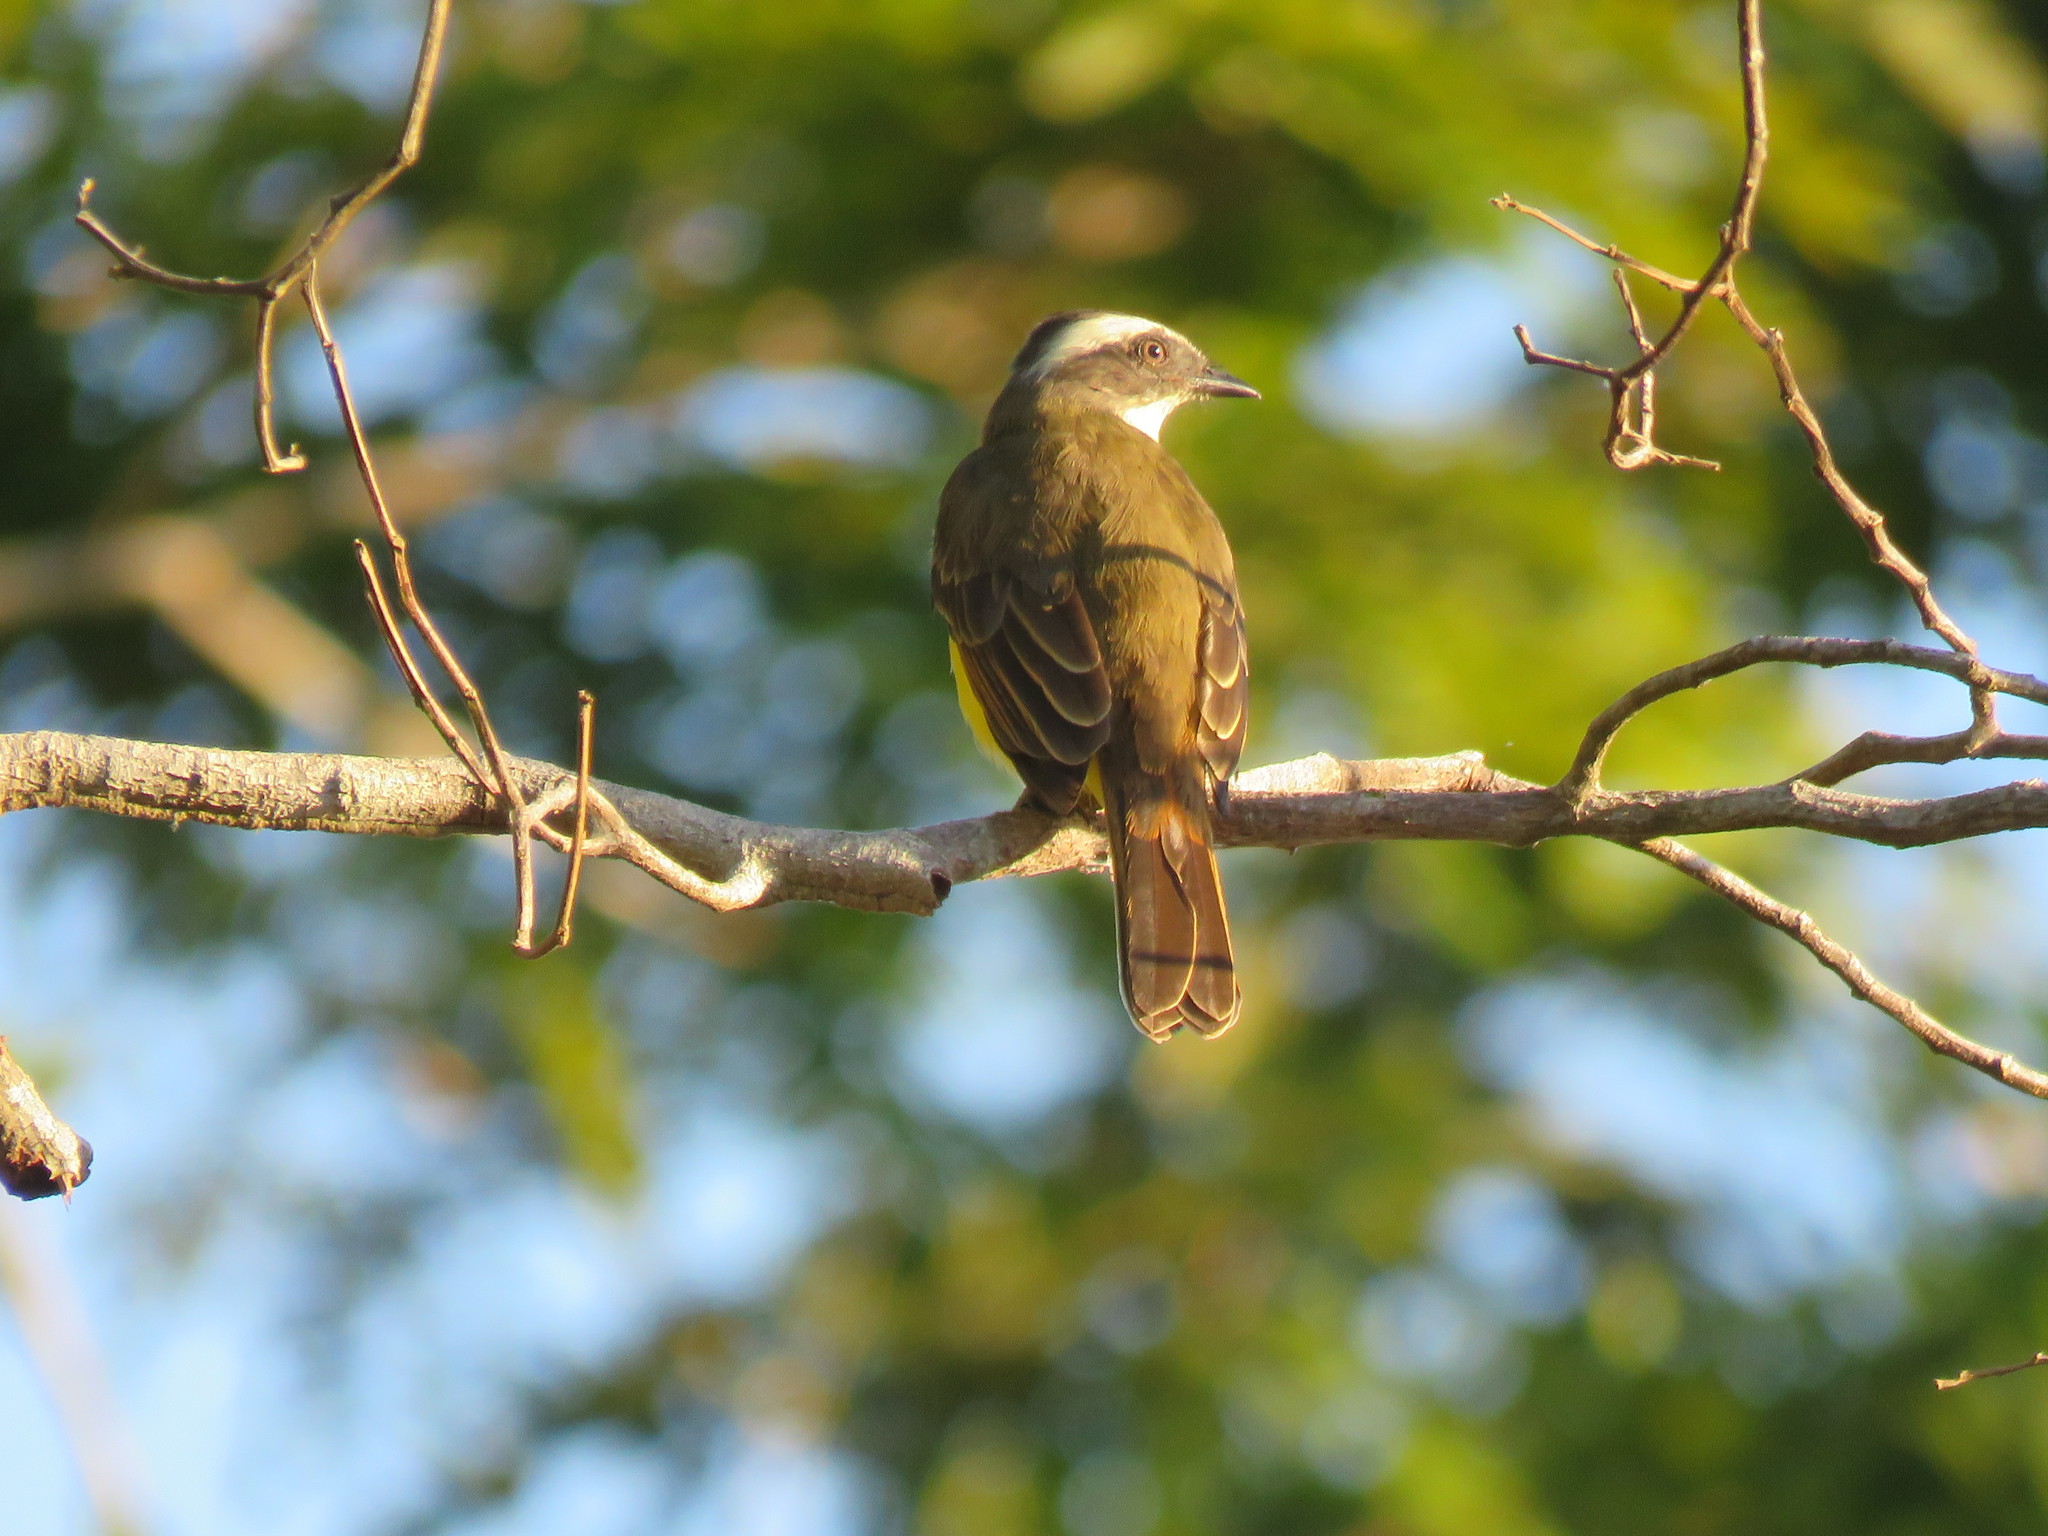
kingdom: Animalia
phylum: Chordata
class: Aves
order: Passeriformes
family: Tyrannidae
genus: Myiozetetes
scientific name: Myiozetetes similis
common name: Social flycatcher
